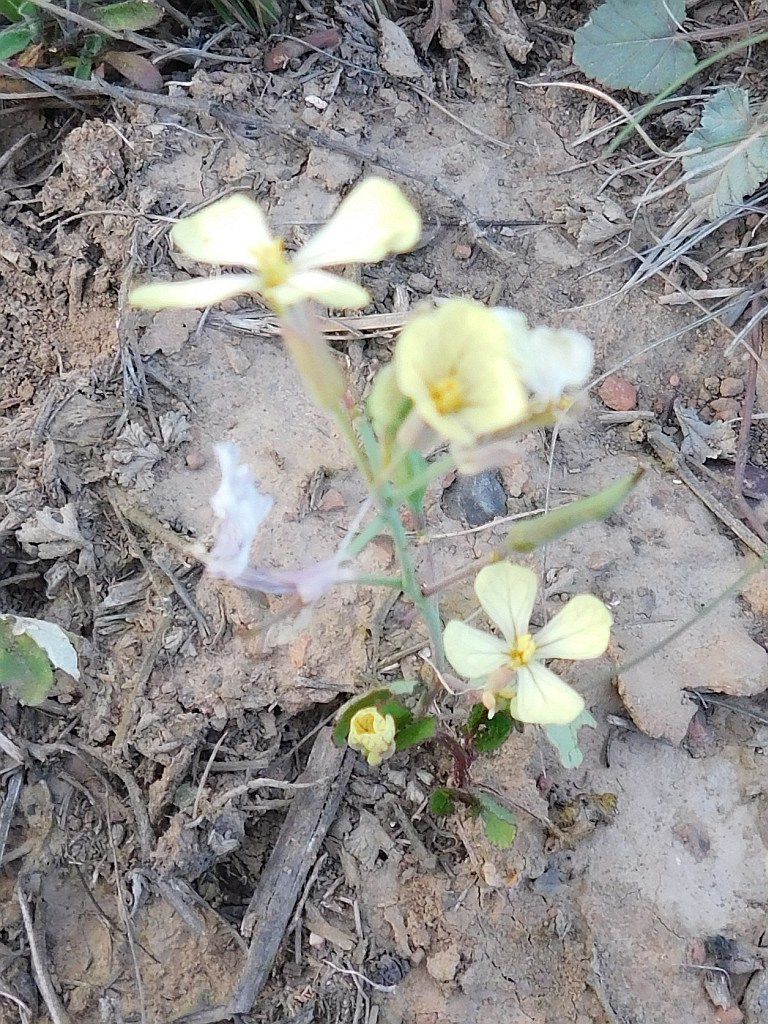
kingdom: Plantae
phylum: Tracheophyta
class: Magnoliopsida
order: Brassicales
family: Brassicaceae
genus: Raphanus
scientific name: Raphanus raphanistrum
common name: Wild radish
